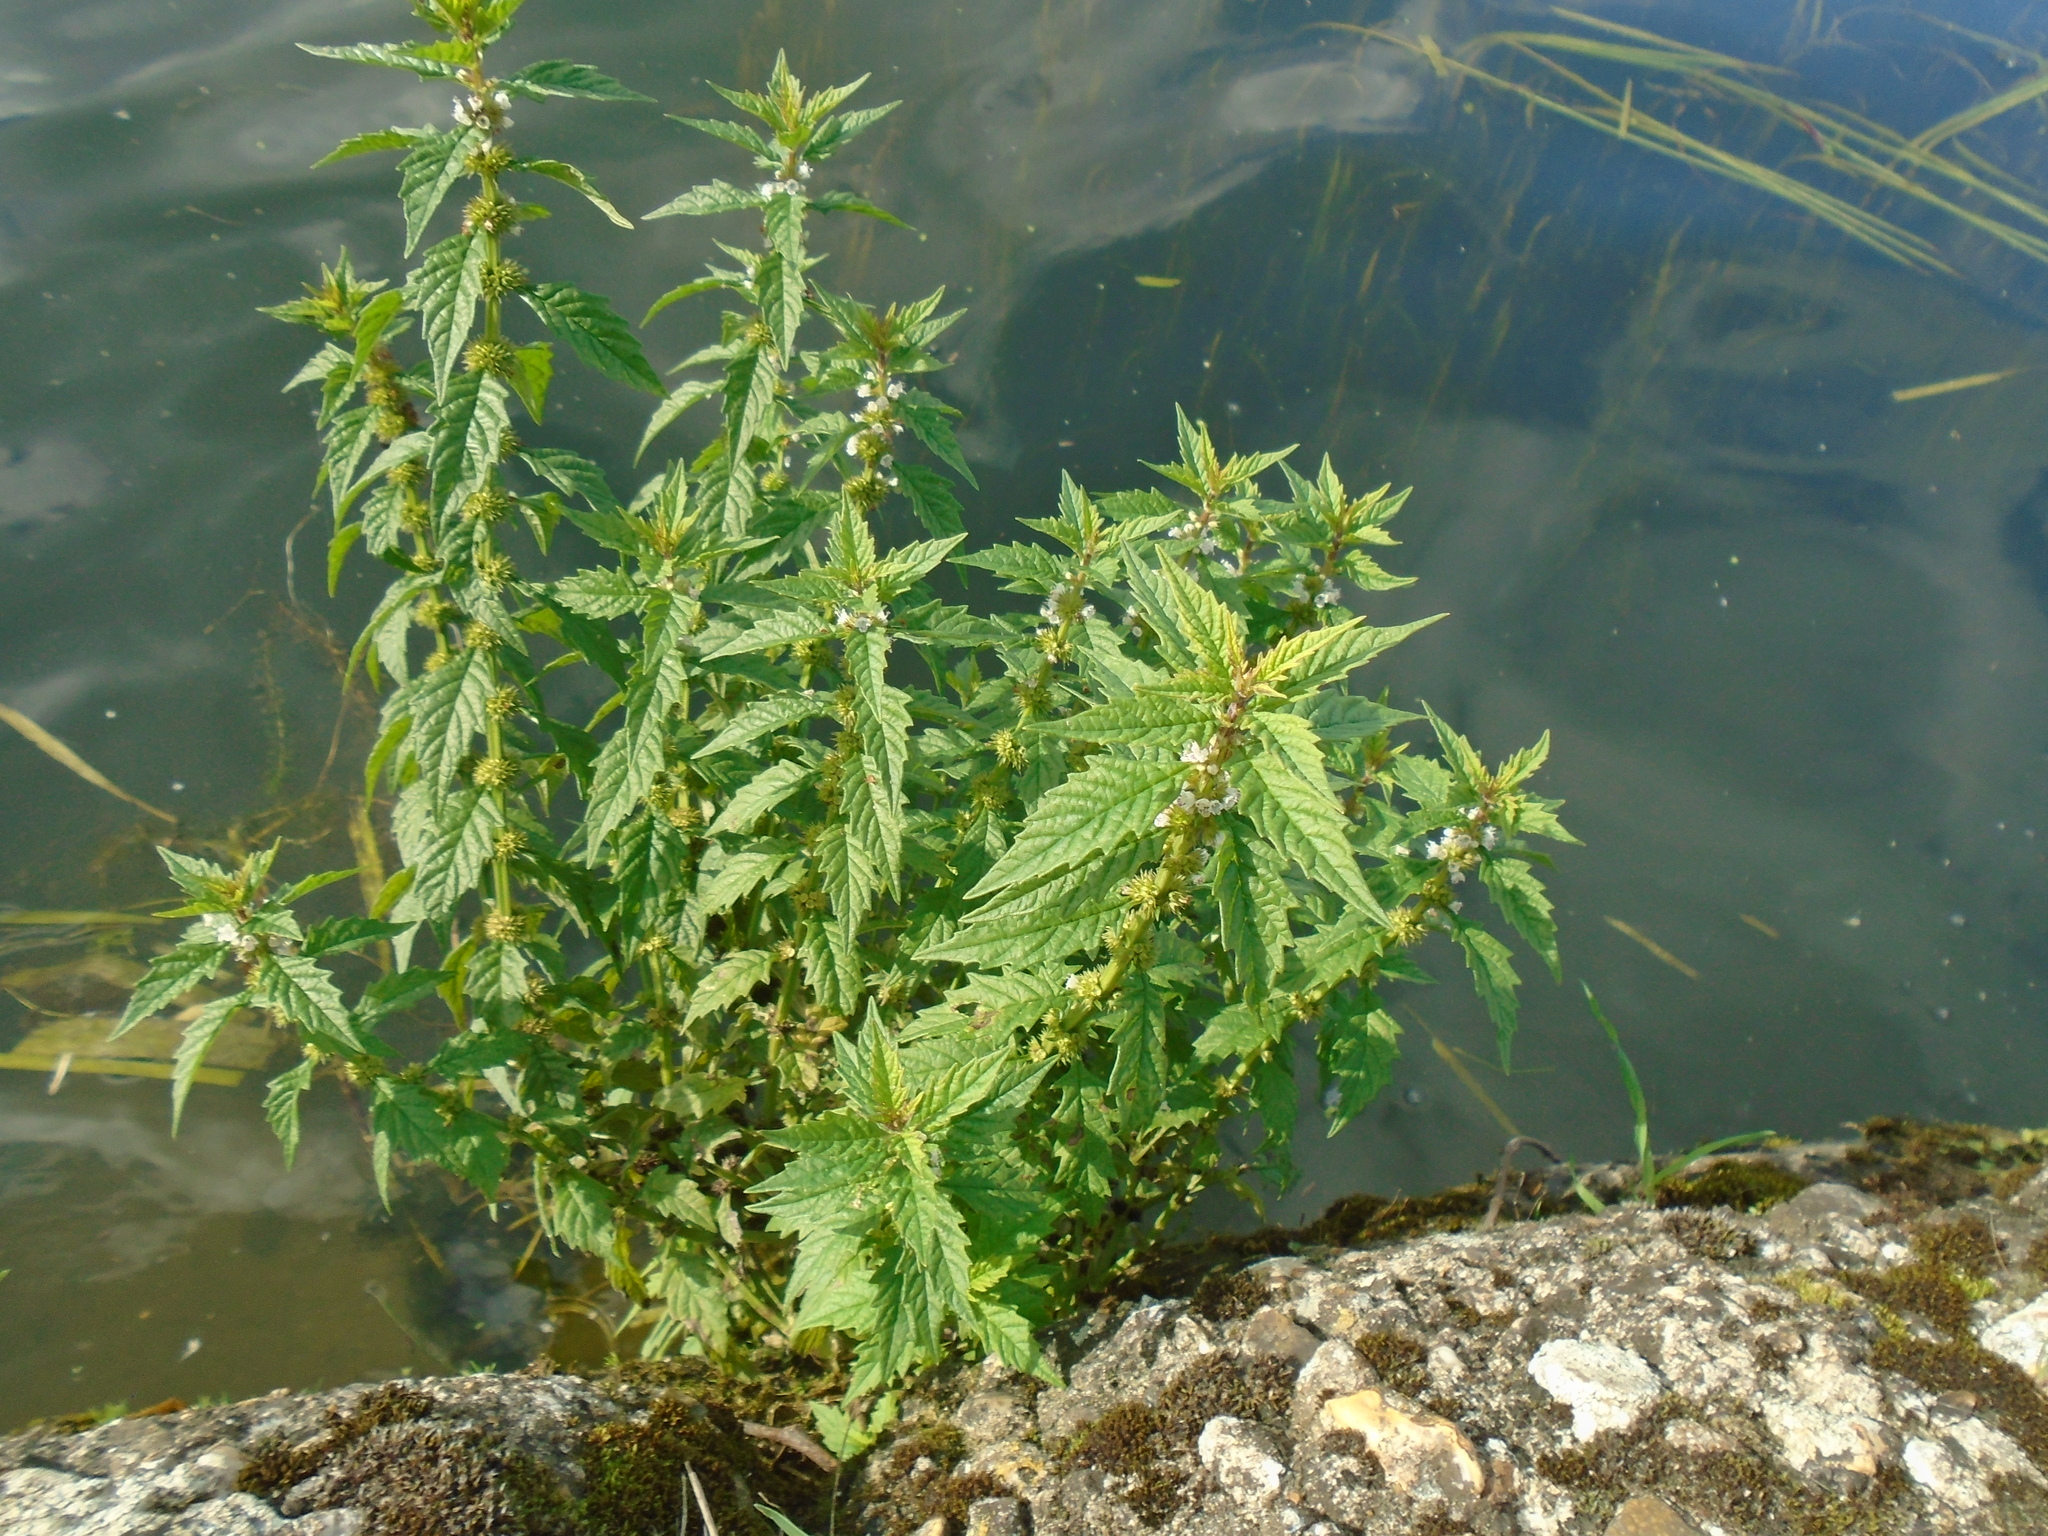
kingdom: Plantae
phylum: Tracheophyta
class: Magnoliopsida
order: Lamiales
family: Lamiaceae
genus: Lycopus
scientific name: Lycopus europaeus
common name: European bugleweed
